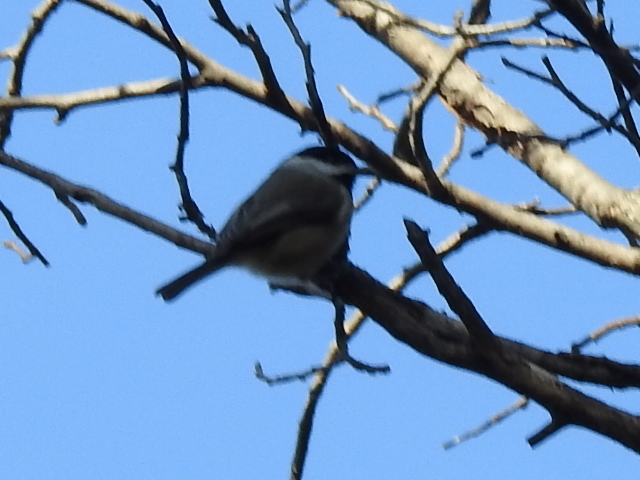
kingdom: Animalia
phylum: Chordata
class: Aves
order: Passeriformes
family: Paridae
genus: Poecile
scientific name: Poecile carolinensis
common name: Carolina chickadee
